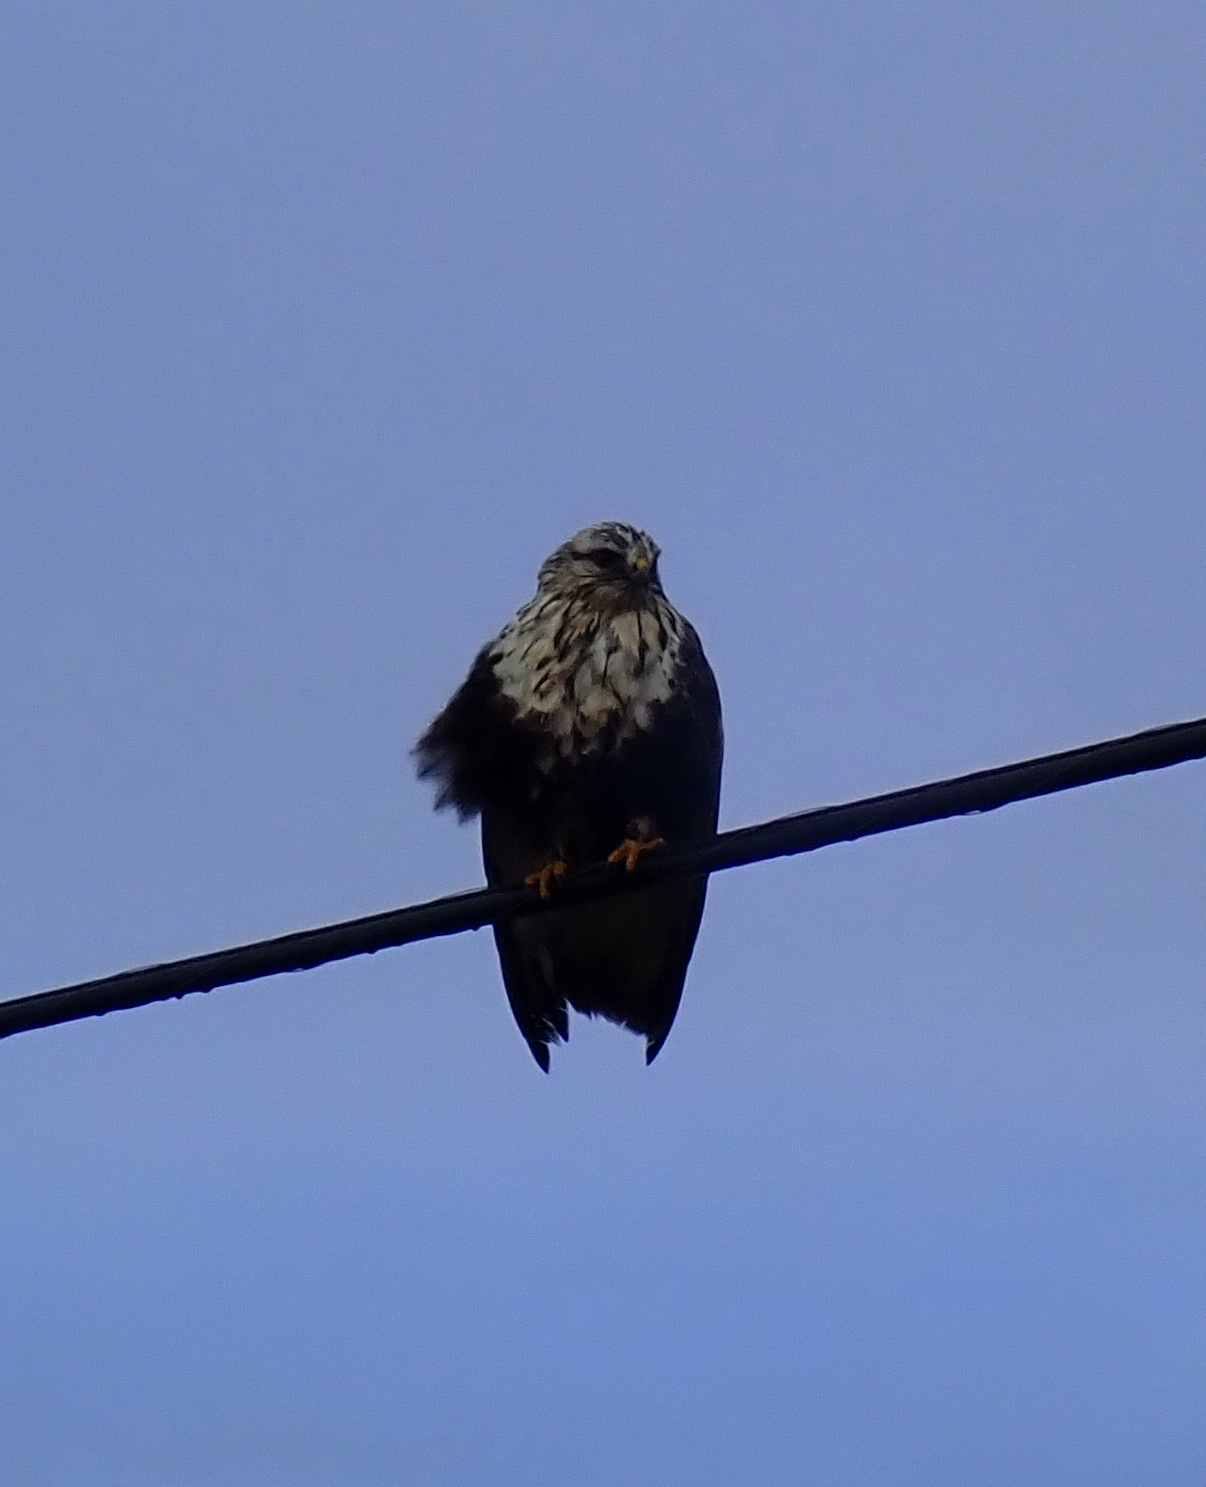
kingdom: Animalia
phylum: Chordata
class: Aves
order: Accipitriformes
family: Accipitridae
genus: Buteo
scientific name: Buteo lagopus
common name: Rough-legged buzzard
